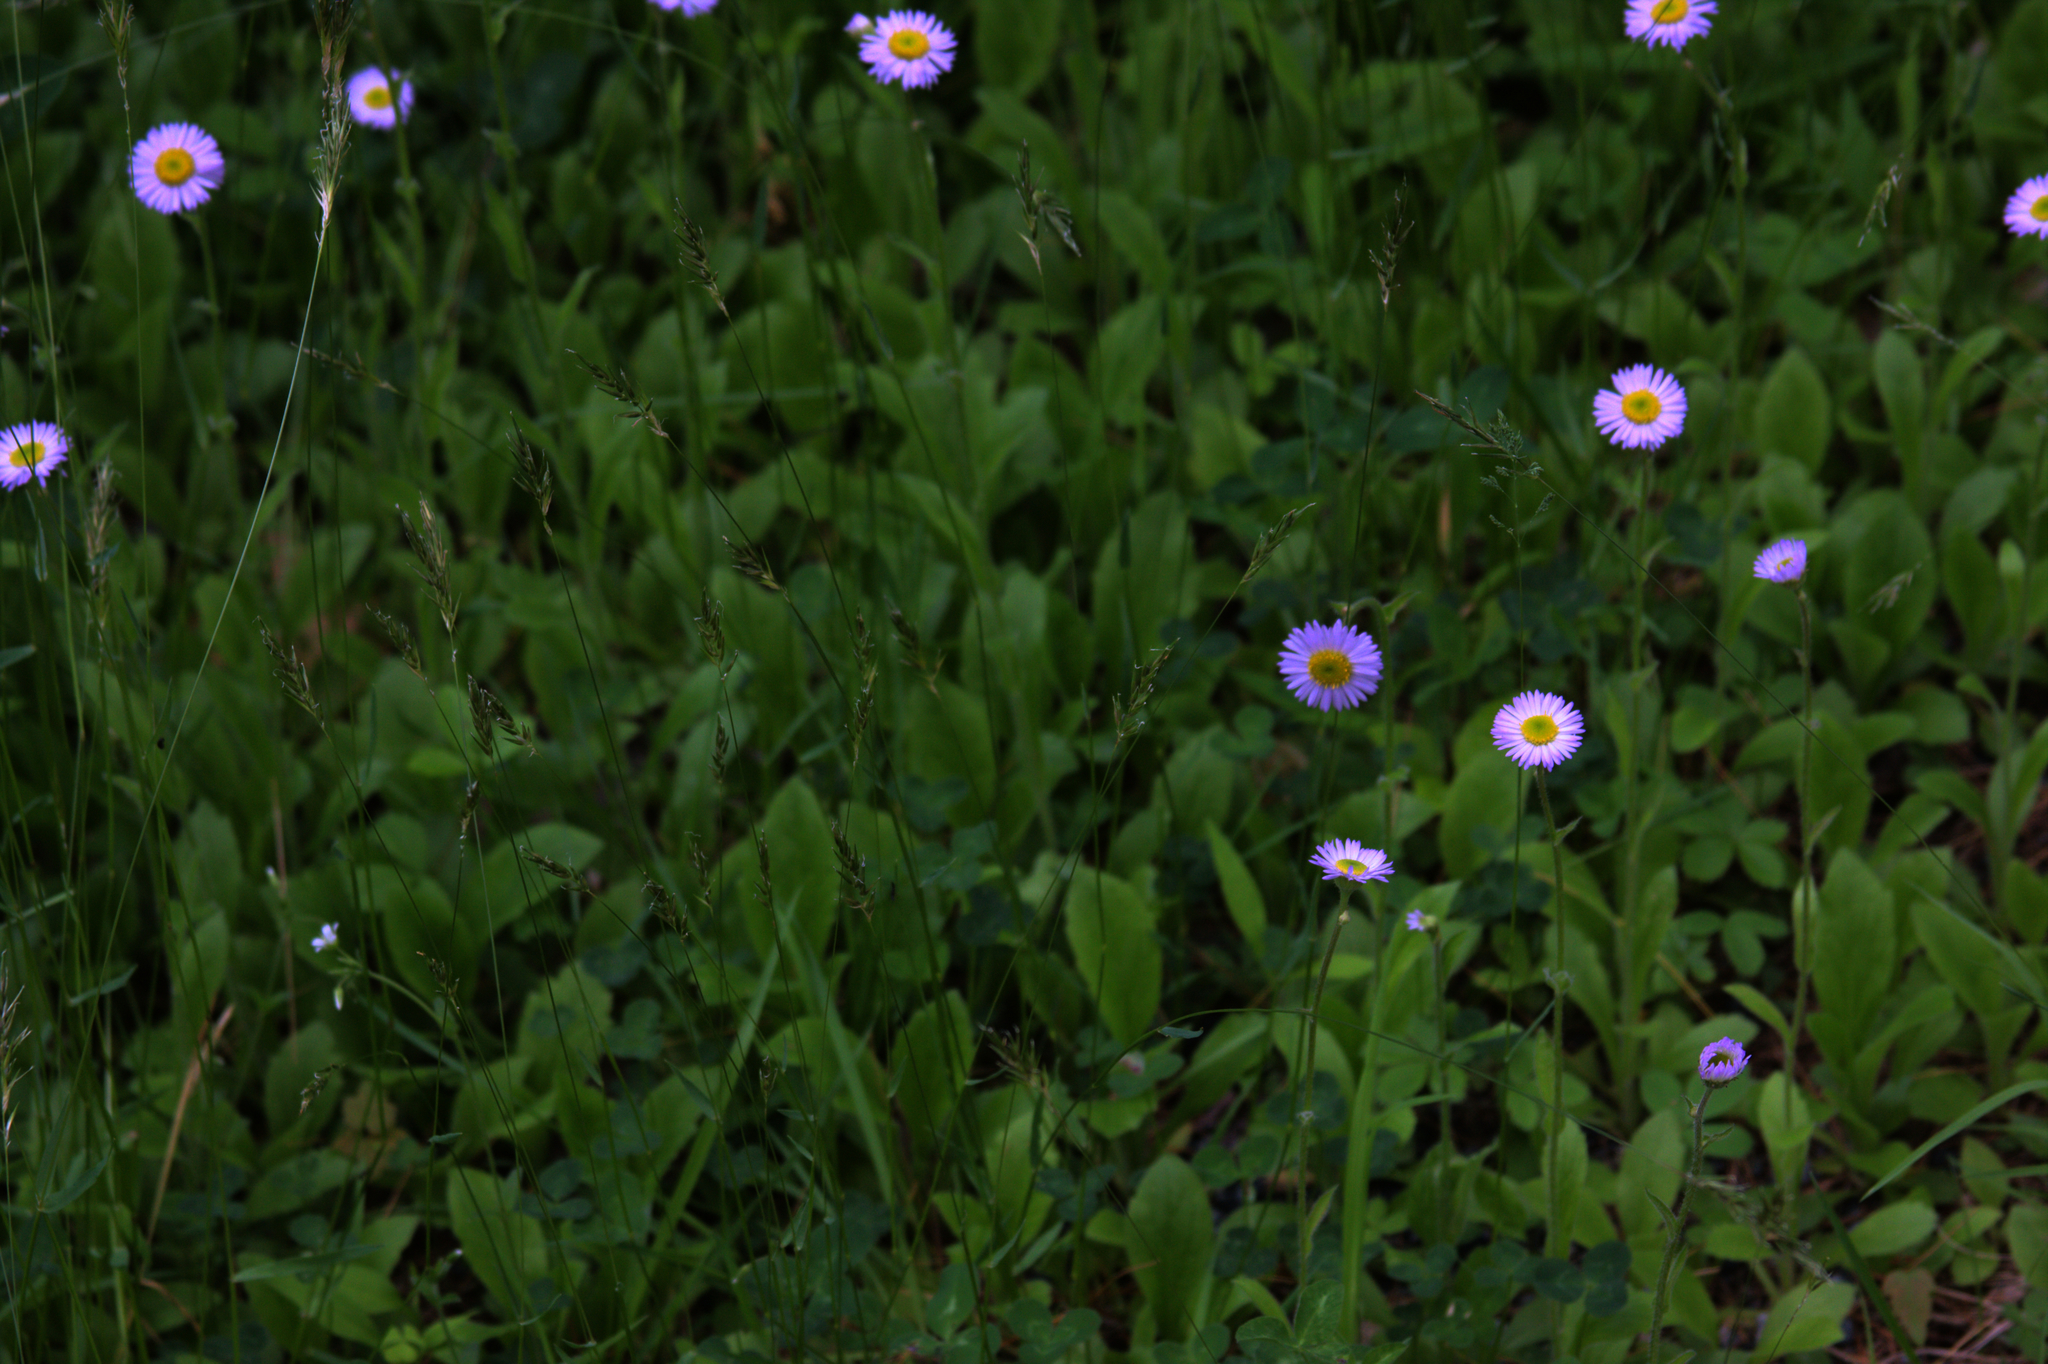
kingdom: Plantae
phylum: Tracheophyta
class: Magnoliopsida
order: Asterales
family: Asteraceae
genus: Erigeron
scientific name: Erigeron pulchellus
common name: Hairy fleabane
